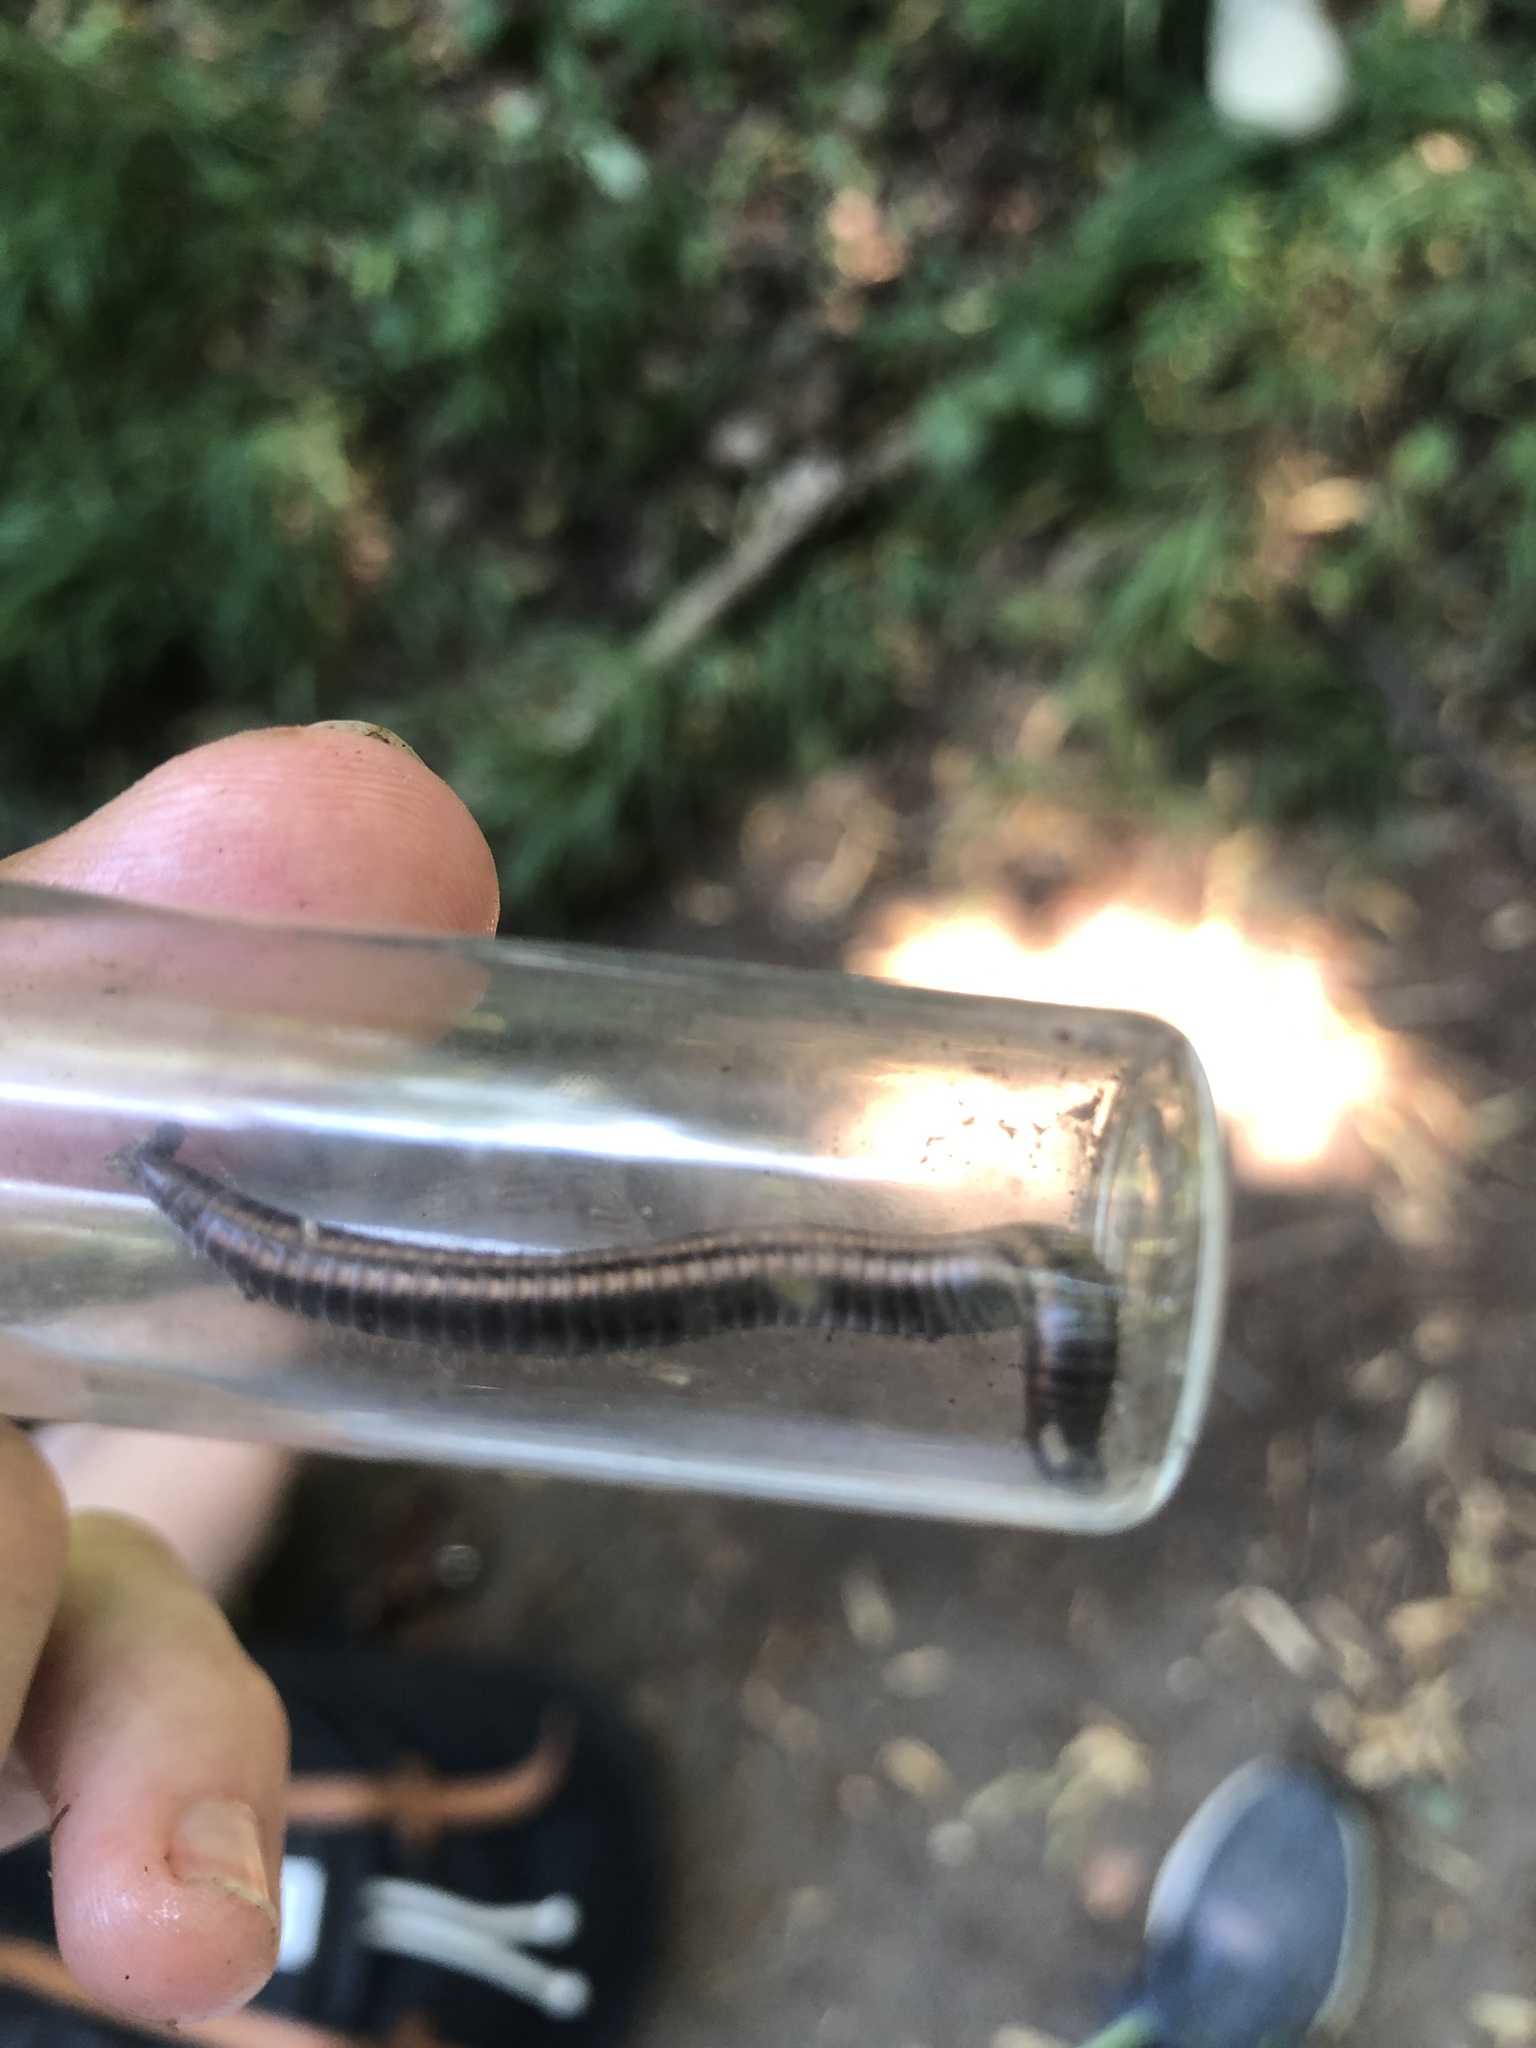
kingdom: Animalia
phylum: Arthropoda
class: Diplopoda
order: Julida
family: Julidae
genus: Ommatoiulus
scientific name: Ommatoiulus sabulosus
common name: Striped millipede
